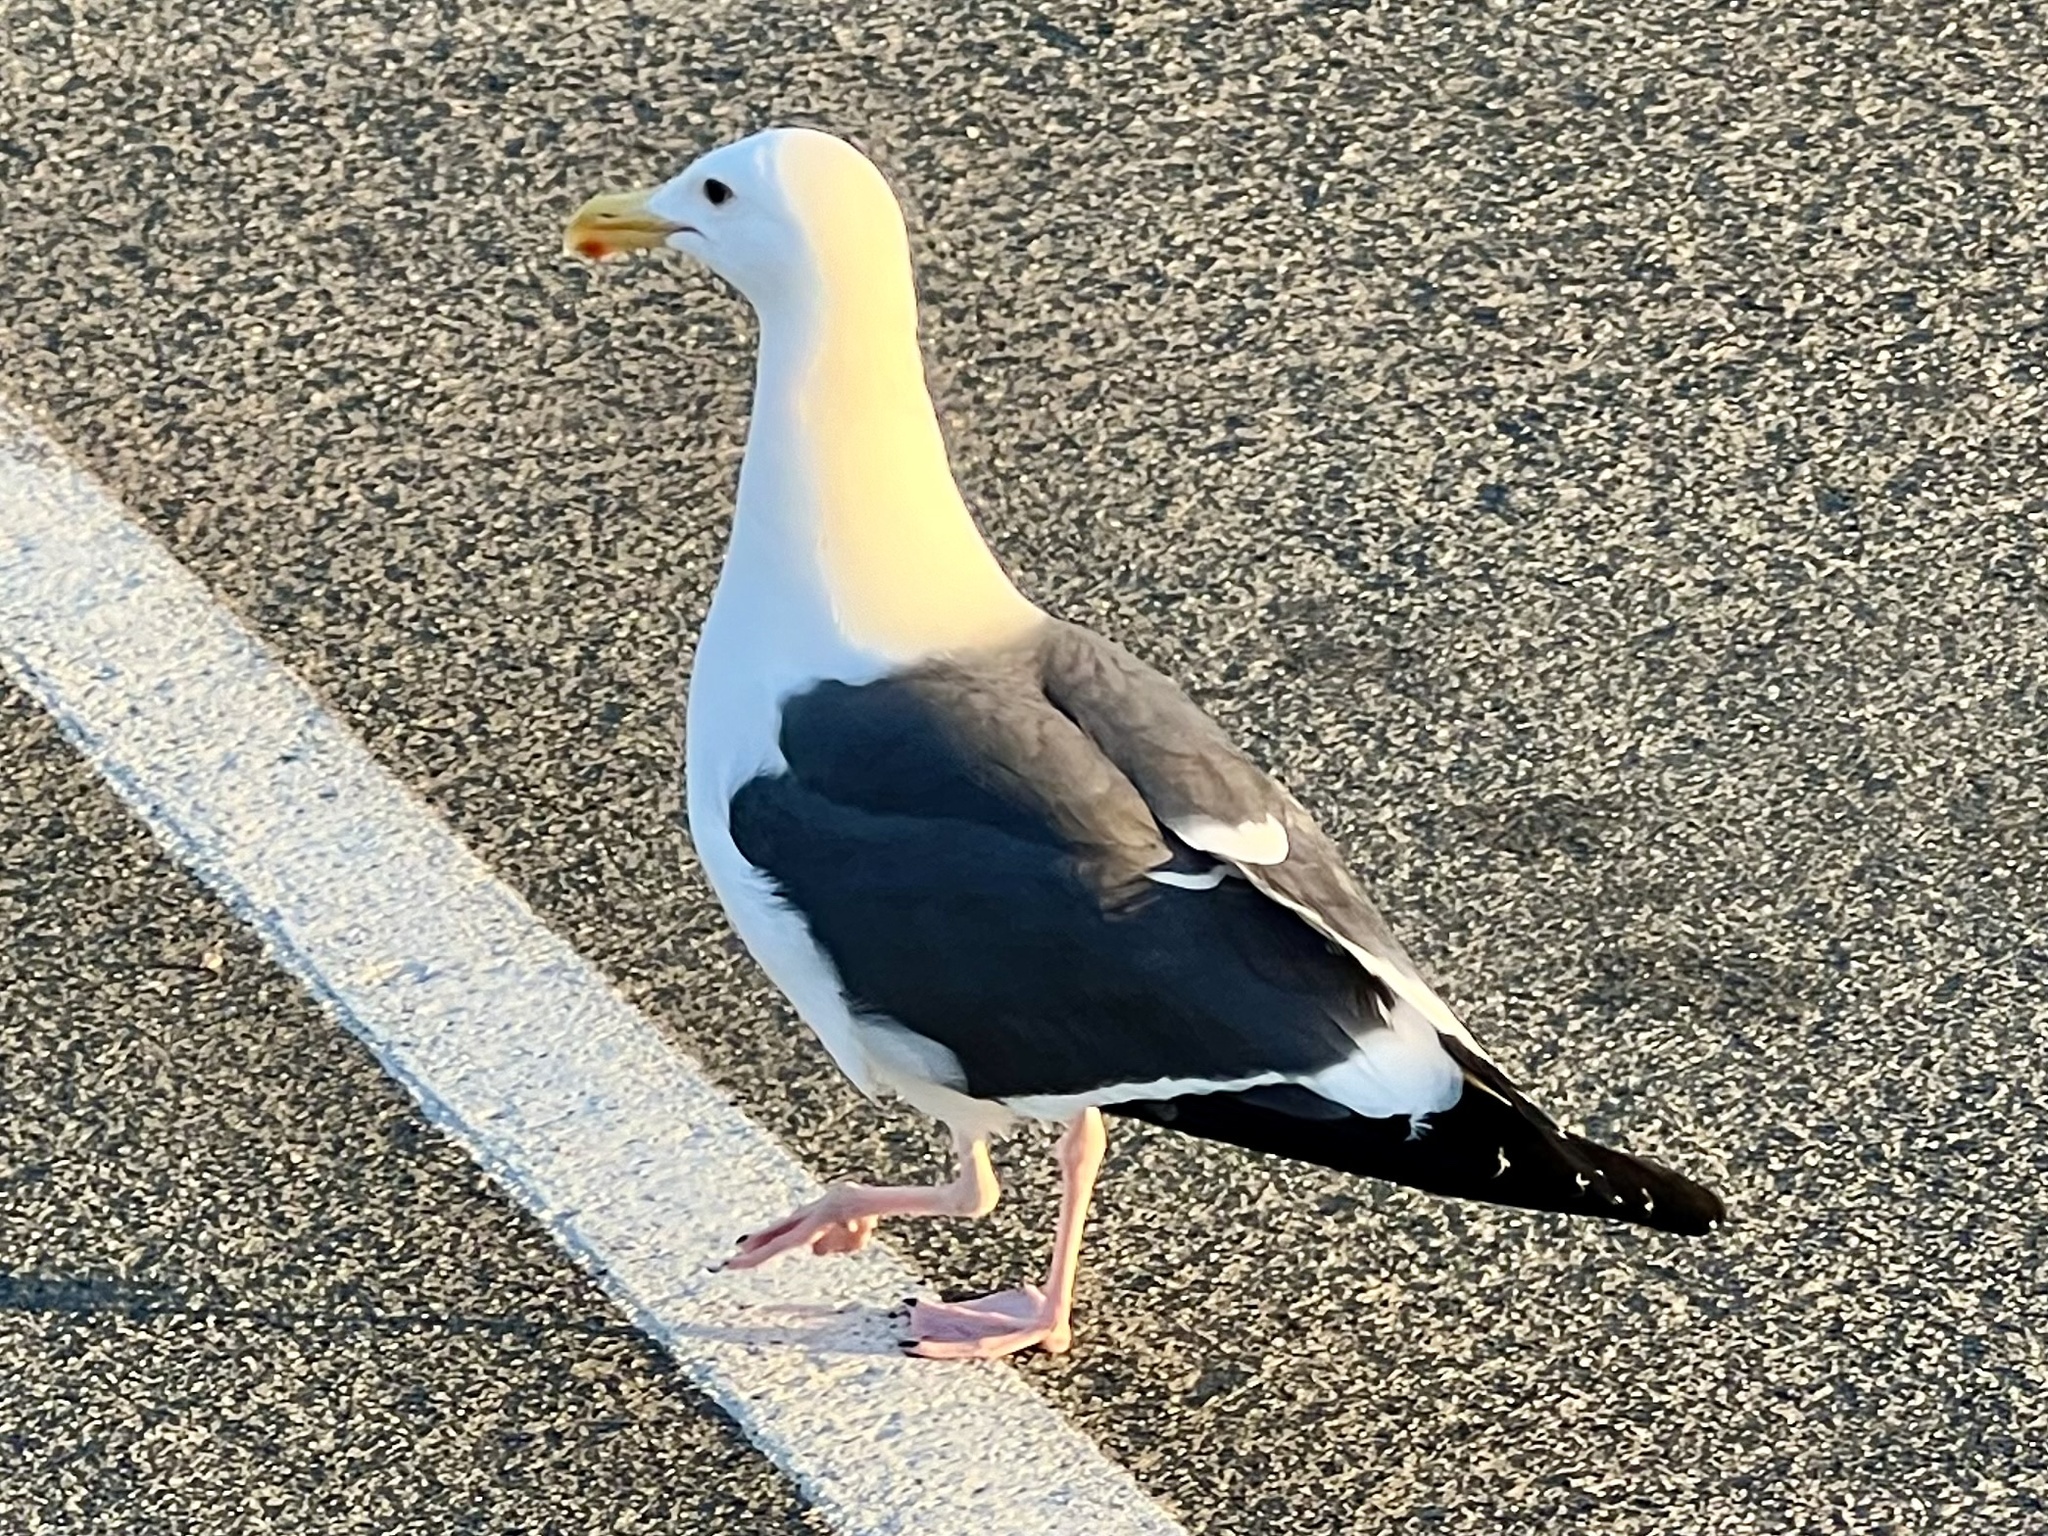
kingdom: Animalia
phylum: Chordata
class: Aves
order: Charadriiformes
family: Laridae
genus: Larus
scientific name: Larus occidentalis
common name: Western gull
